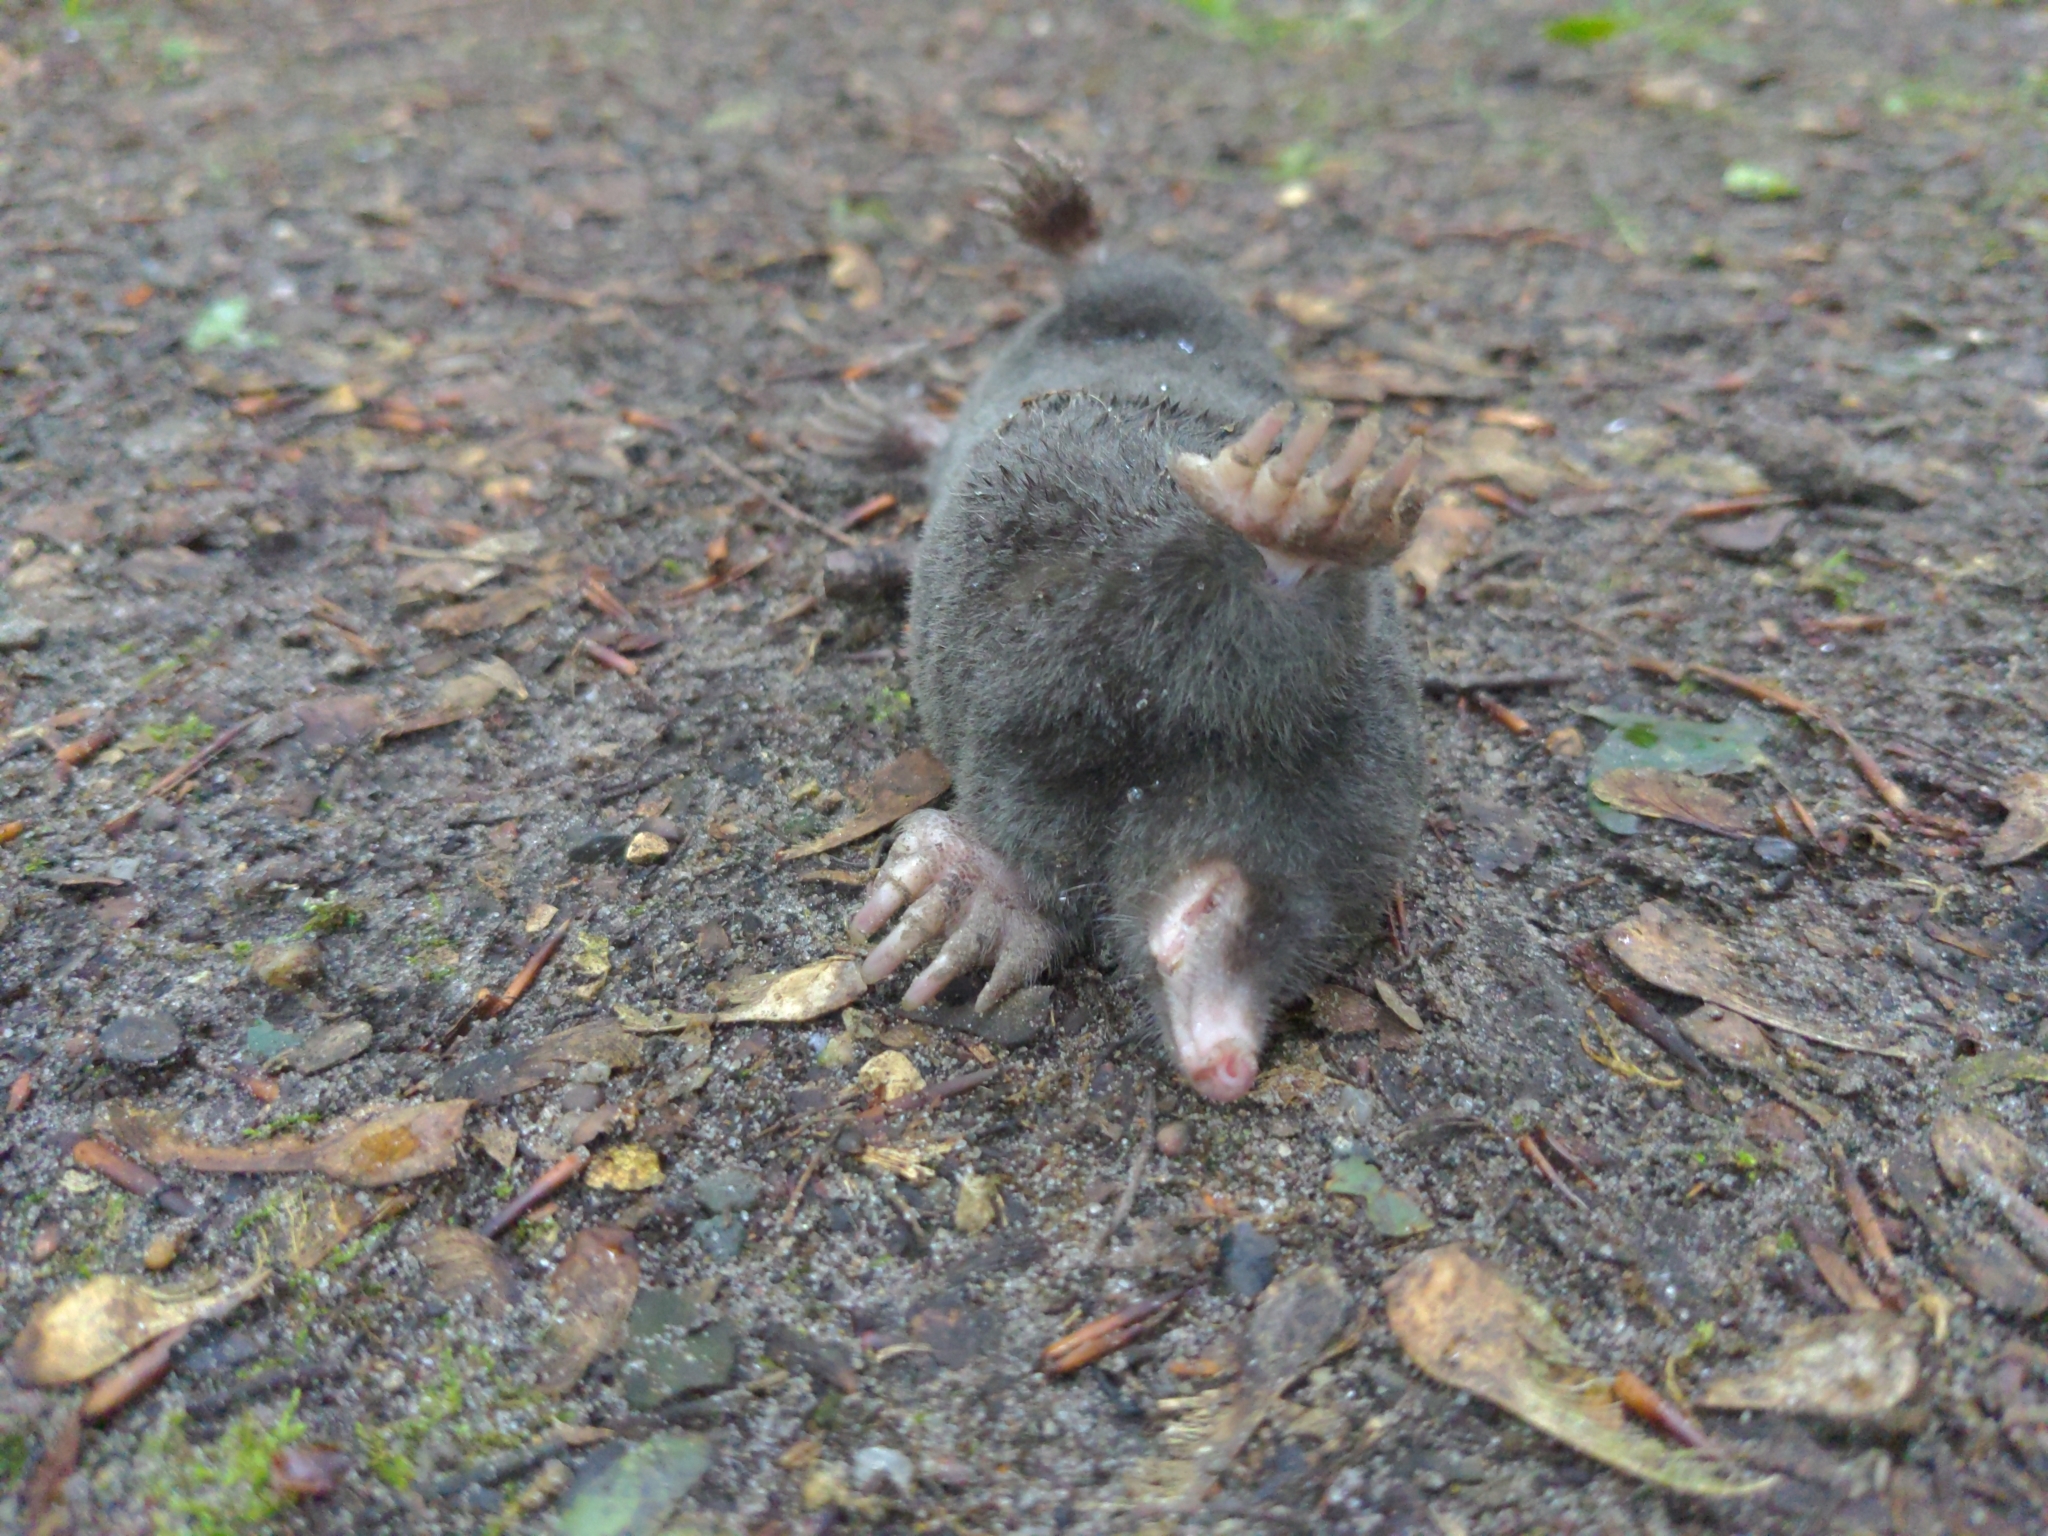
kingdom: Animalia
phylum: Chordata
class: Mammalia
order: Soricomorpha
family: Talpidae
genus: Talpa
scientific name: Talpa europaea
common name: European mole
